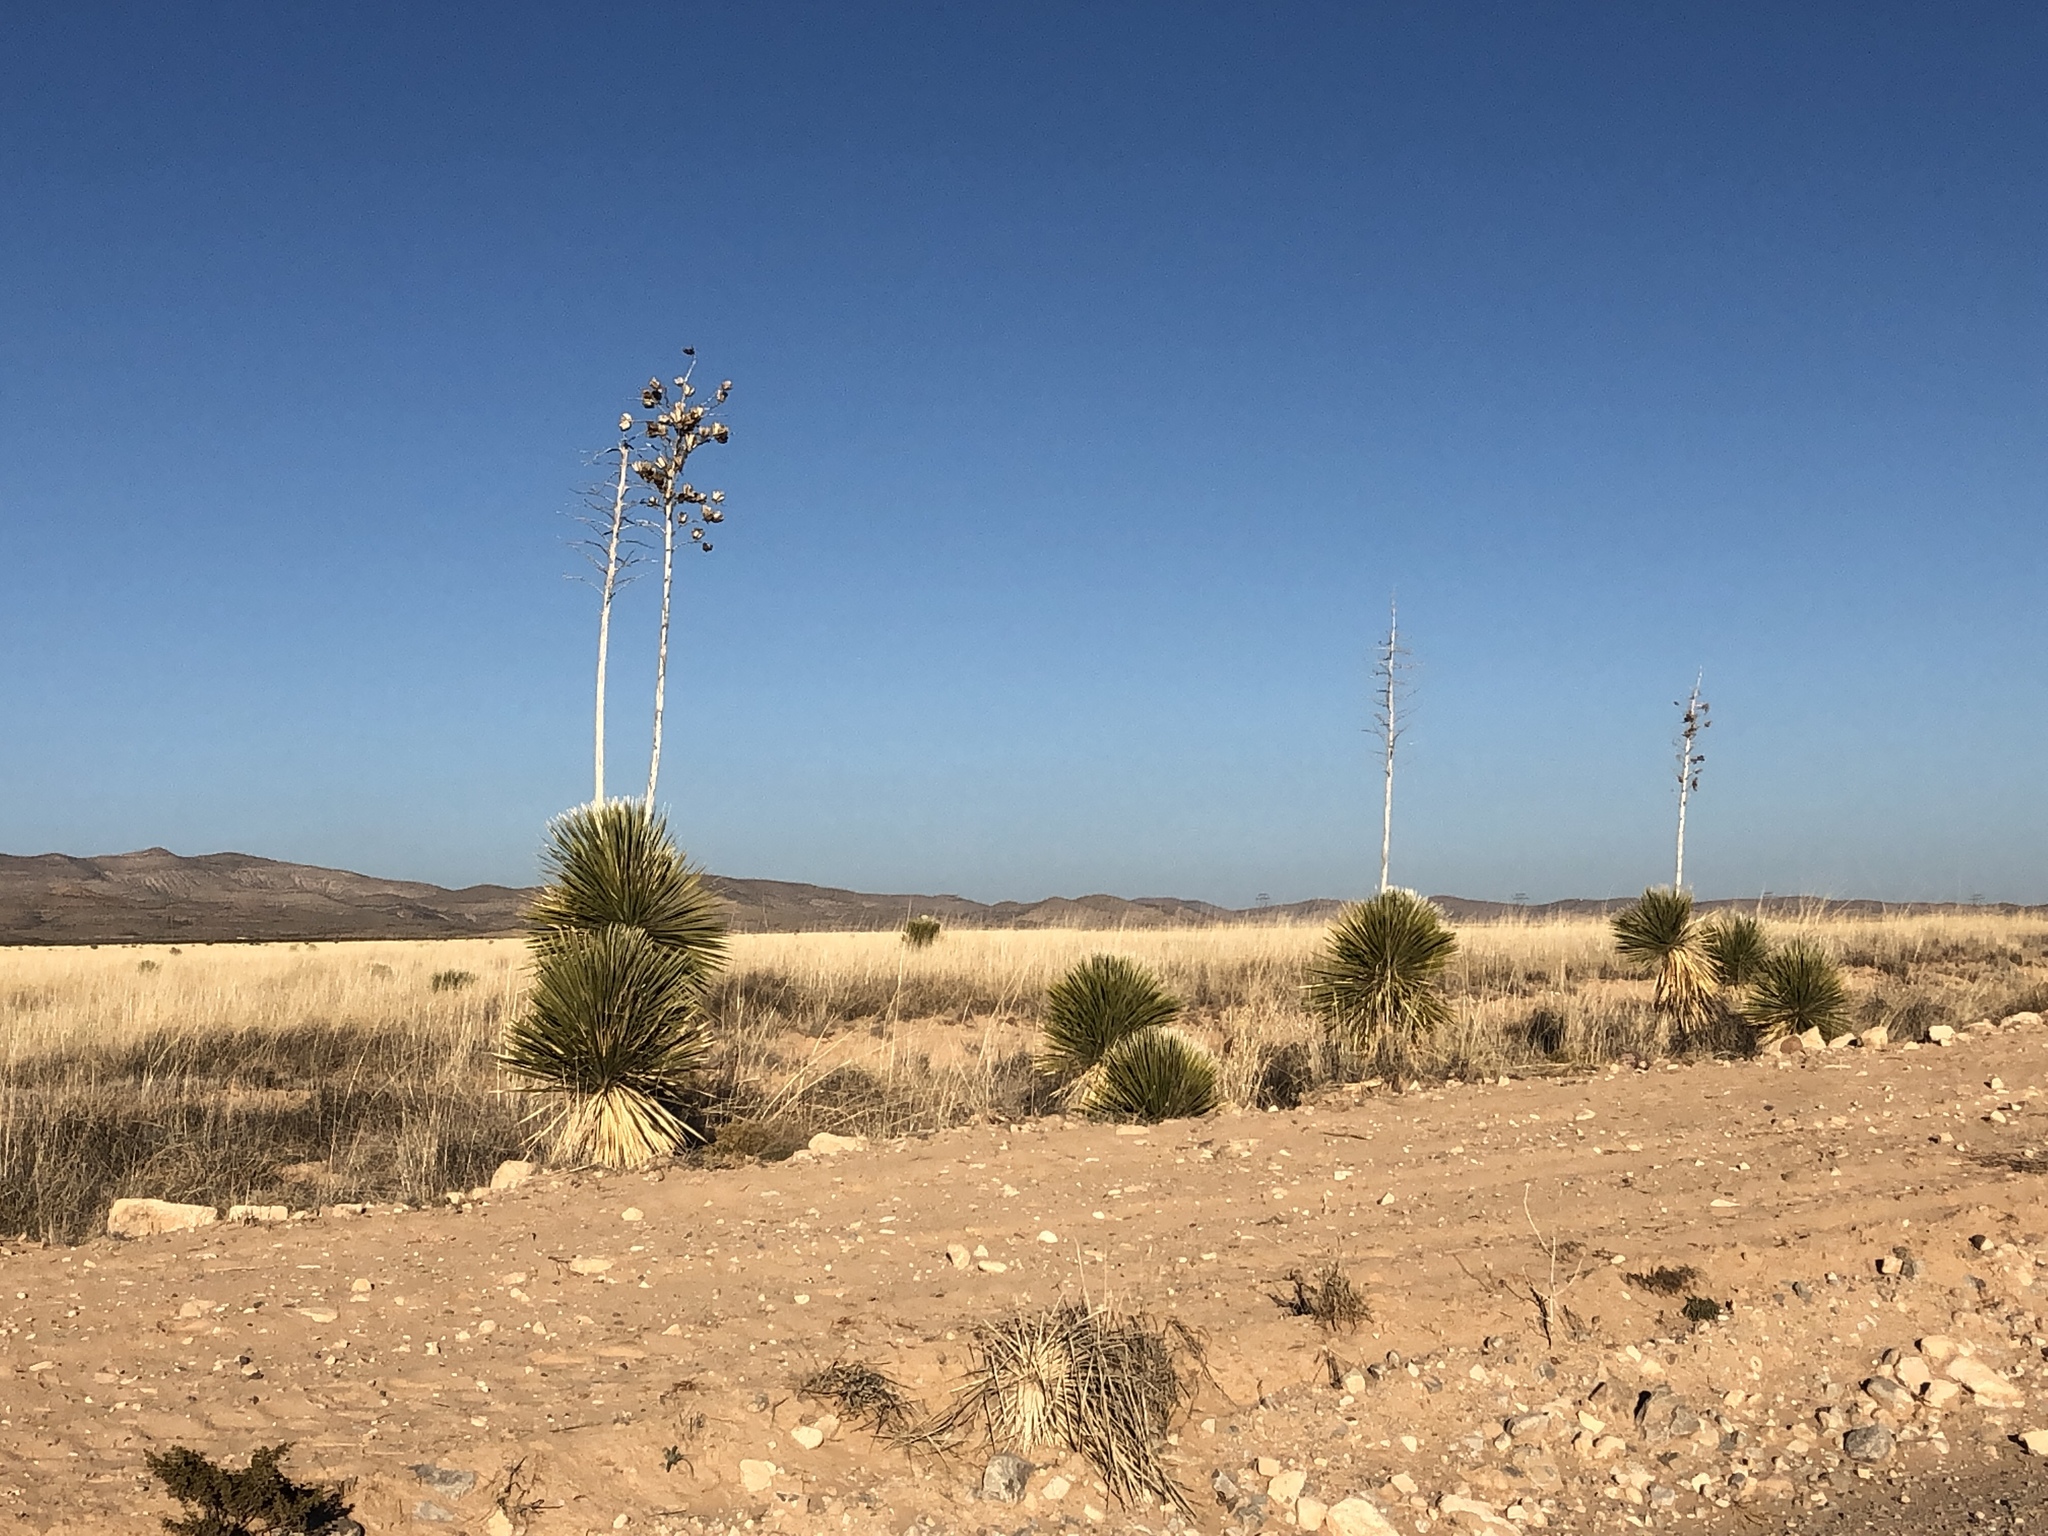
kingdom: Plantae
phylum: Tracheophyta
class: Liliopsida
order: Asparagales
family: Asparagaceae
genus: Yucca
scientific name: Yucca elata
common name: Palmella
